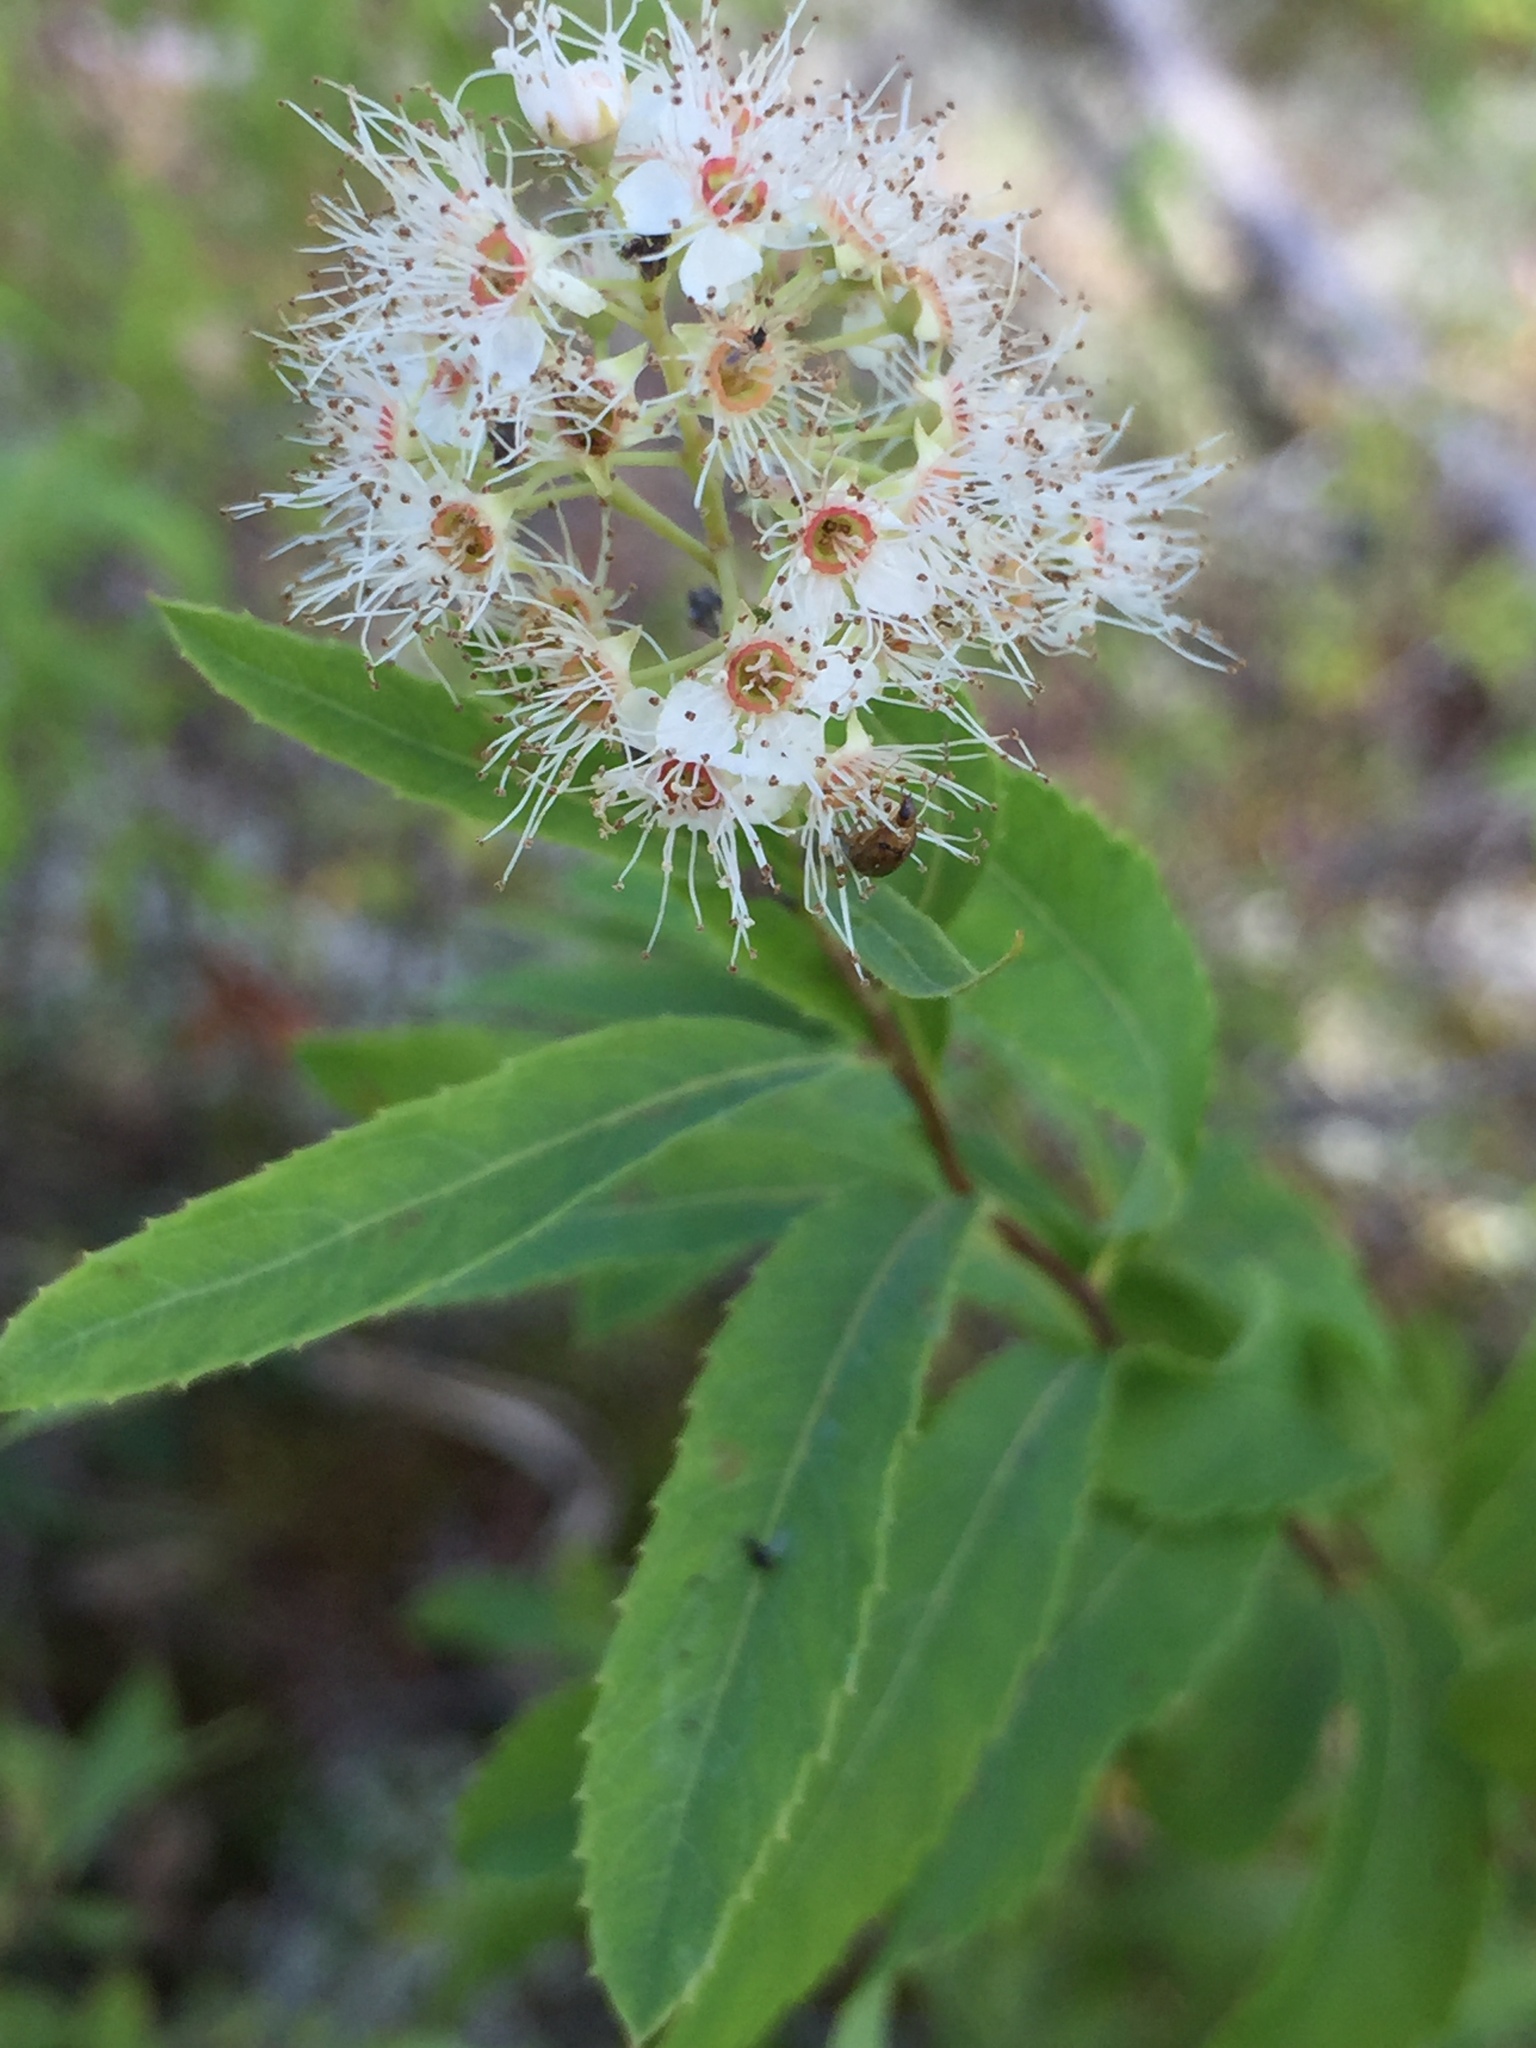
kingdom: Plantae
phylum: Tracheophyta
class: Magnoliopsida
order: Rosales
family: Rosaceae
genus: Spiraea
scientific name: Spiraea alba
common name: Pale bridewort
